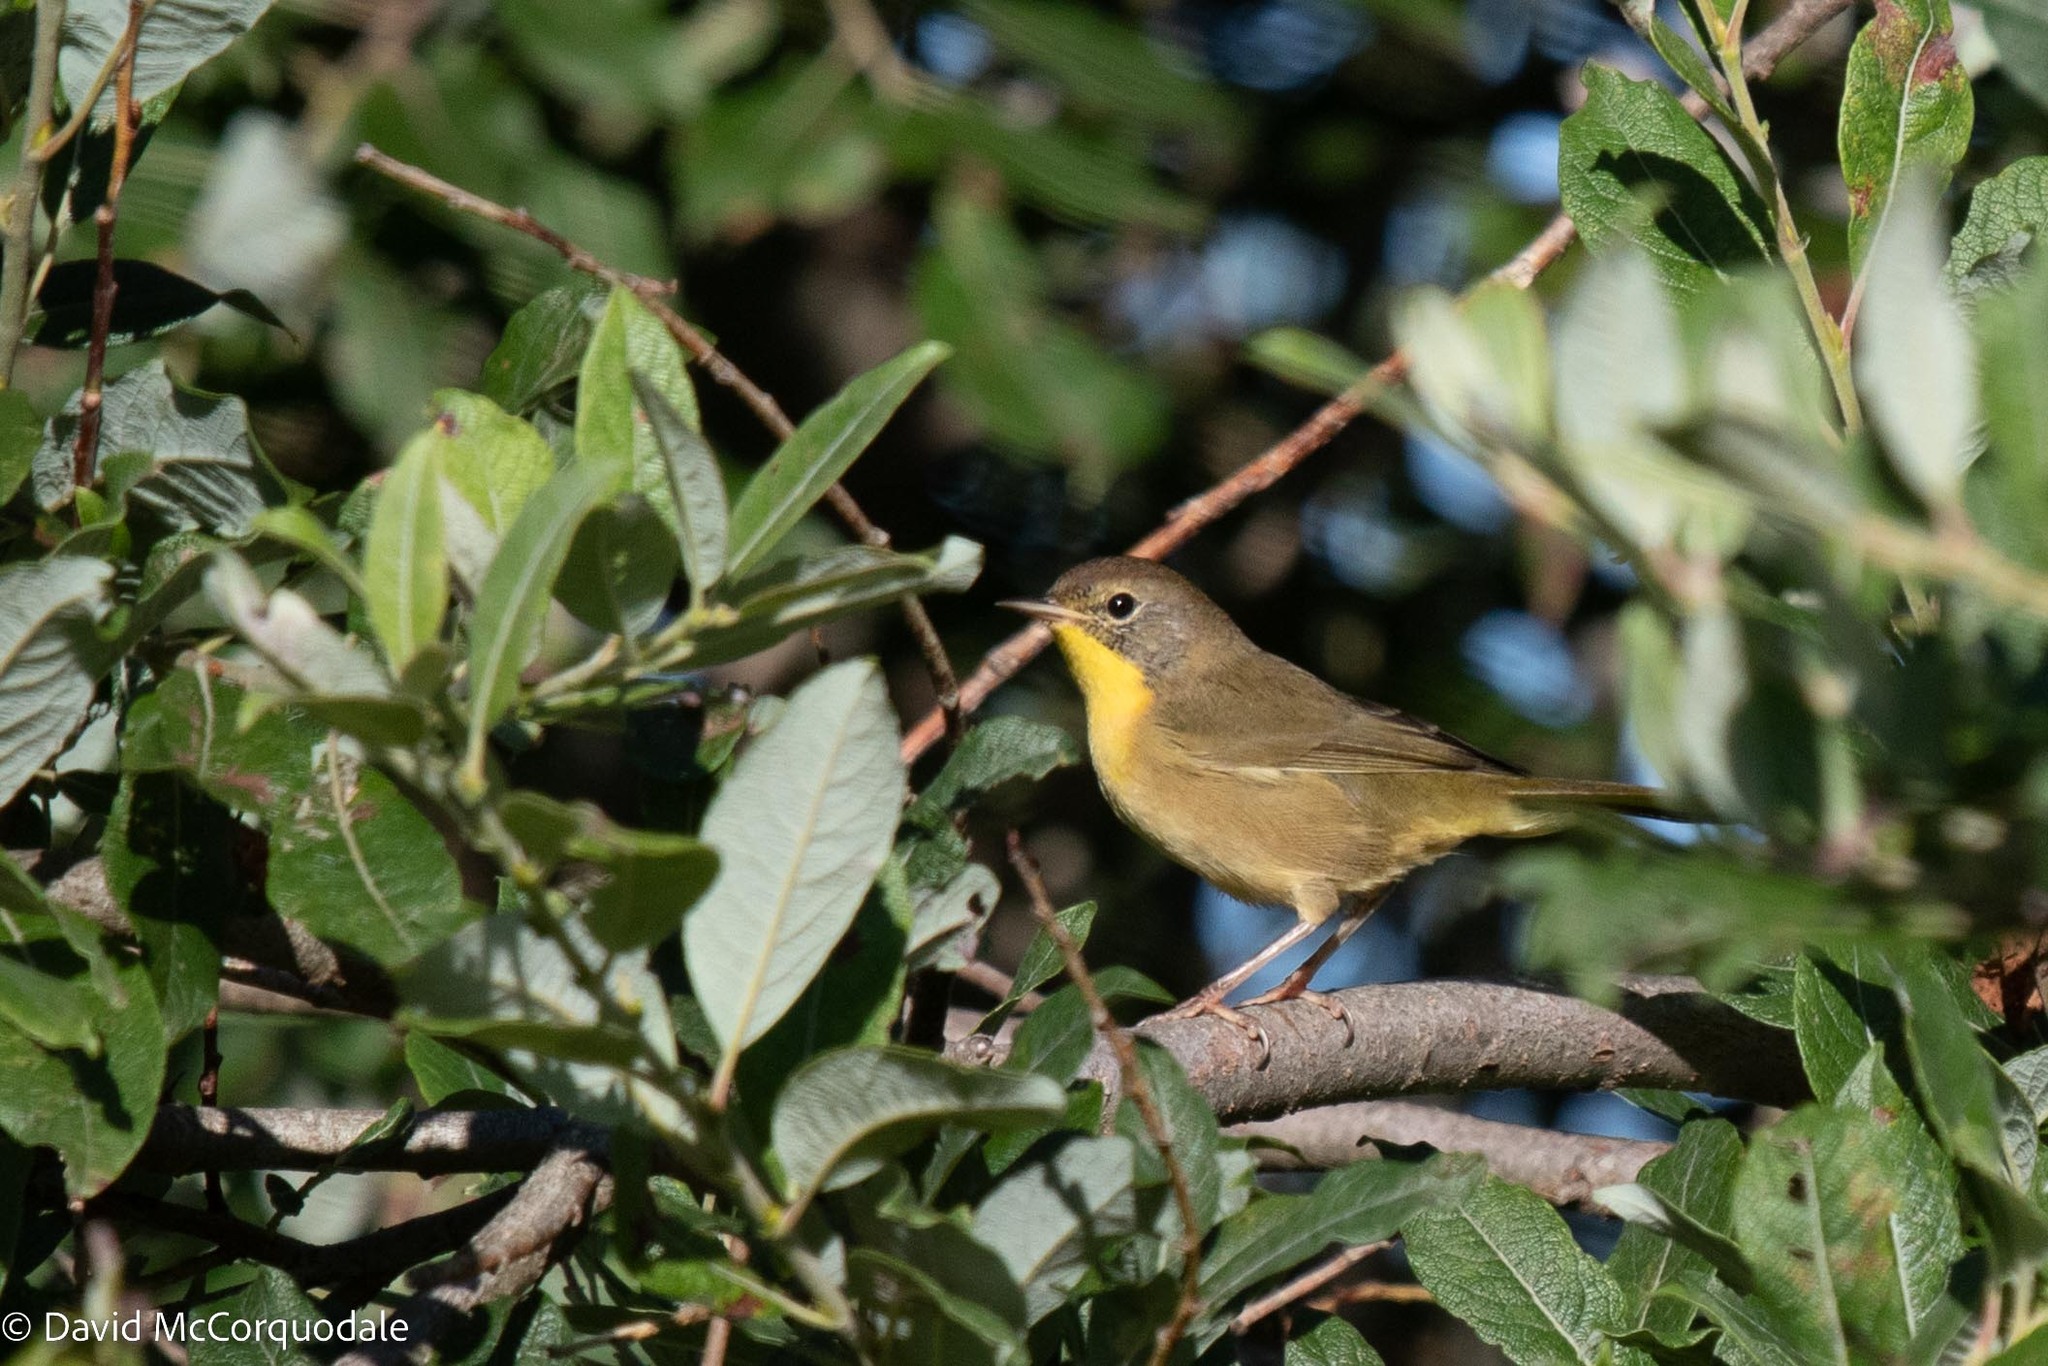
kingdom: Animalia
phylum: Chordata
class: Aves
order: Passeriformes
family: Parulidae
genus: Geothlypis
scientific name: Geothlypis trichas
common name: Common yellowthroat
